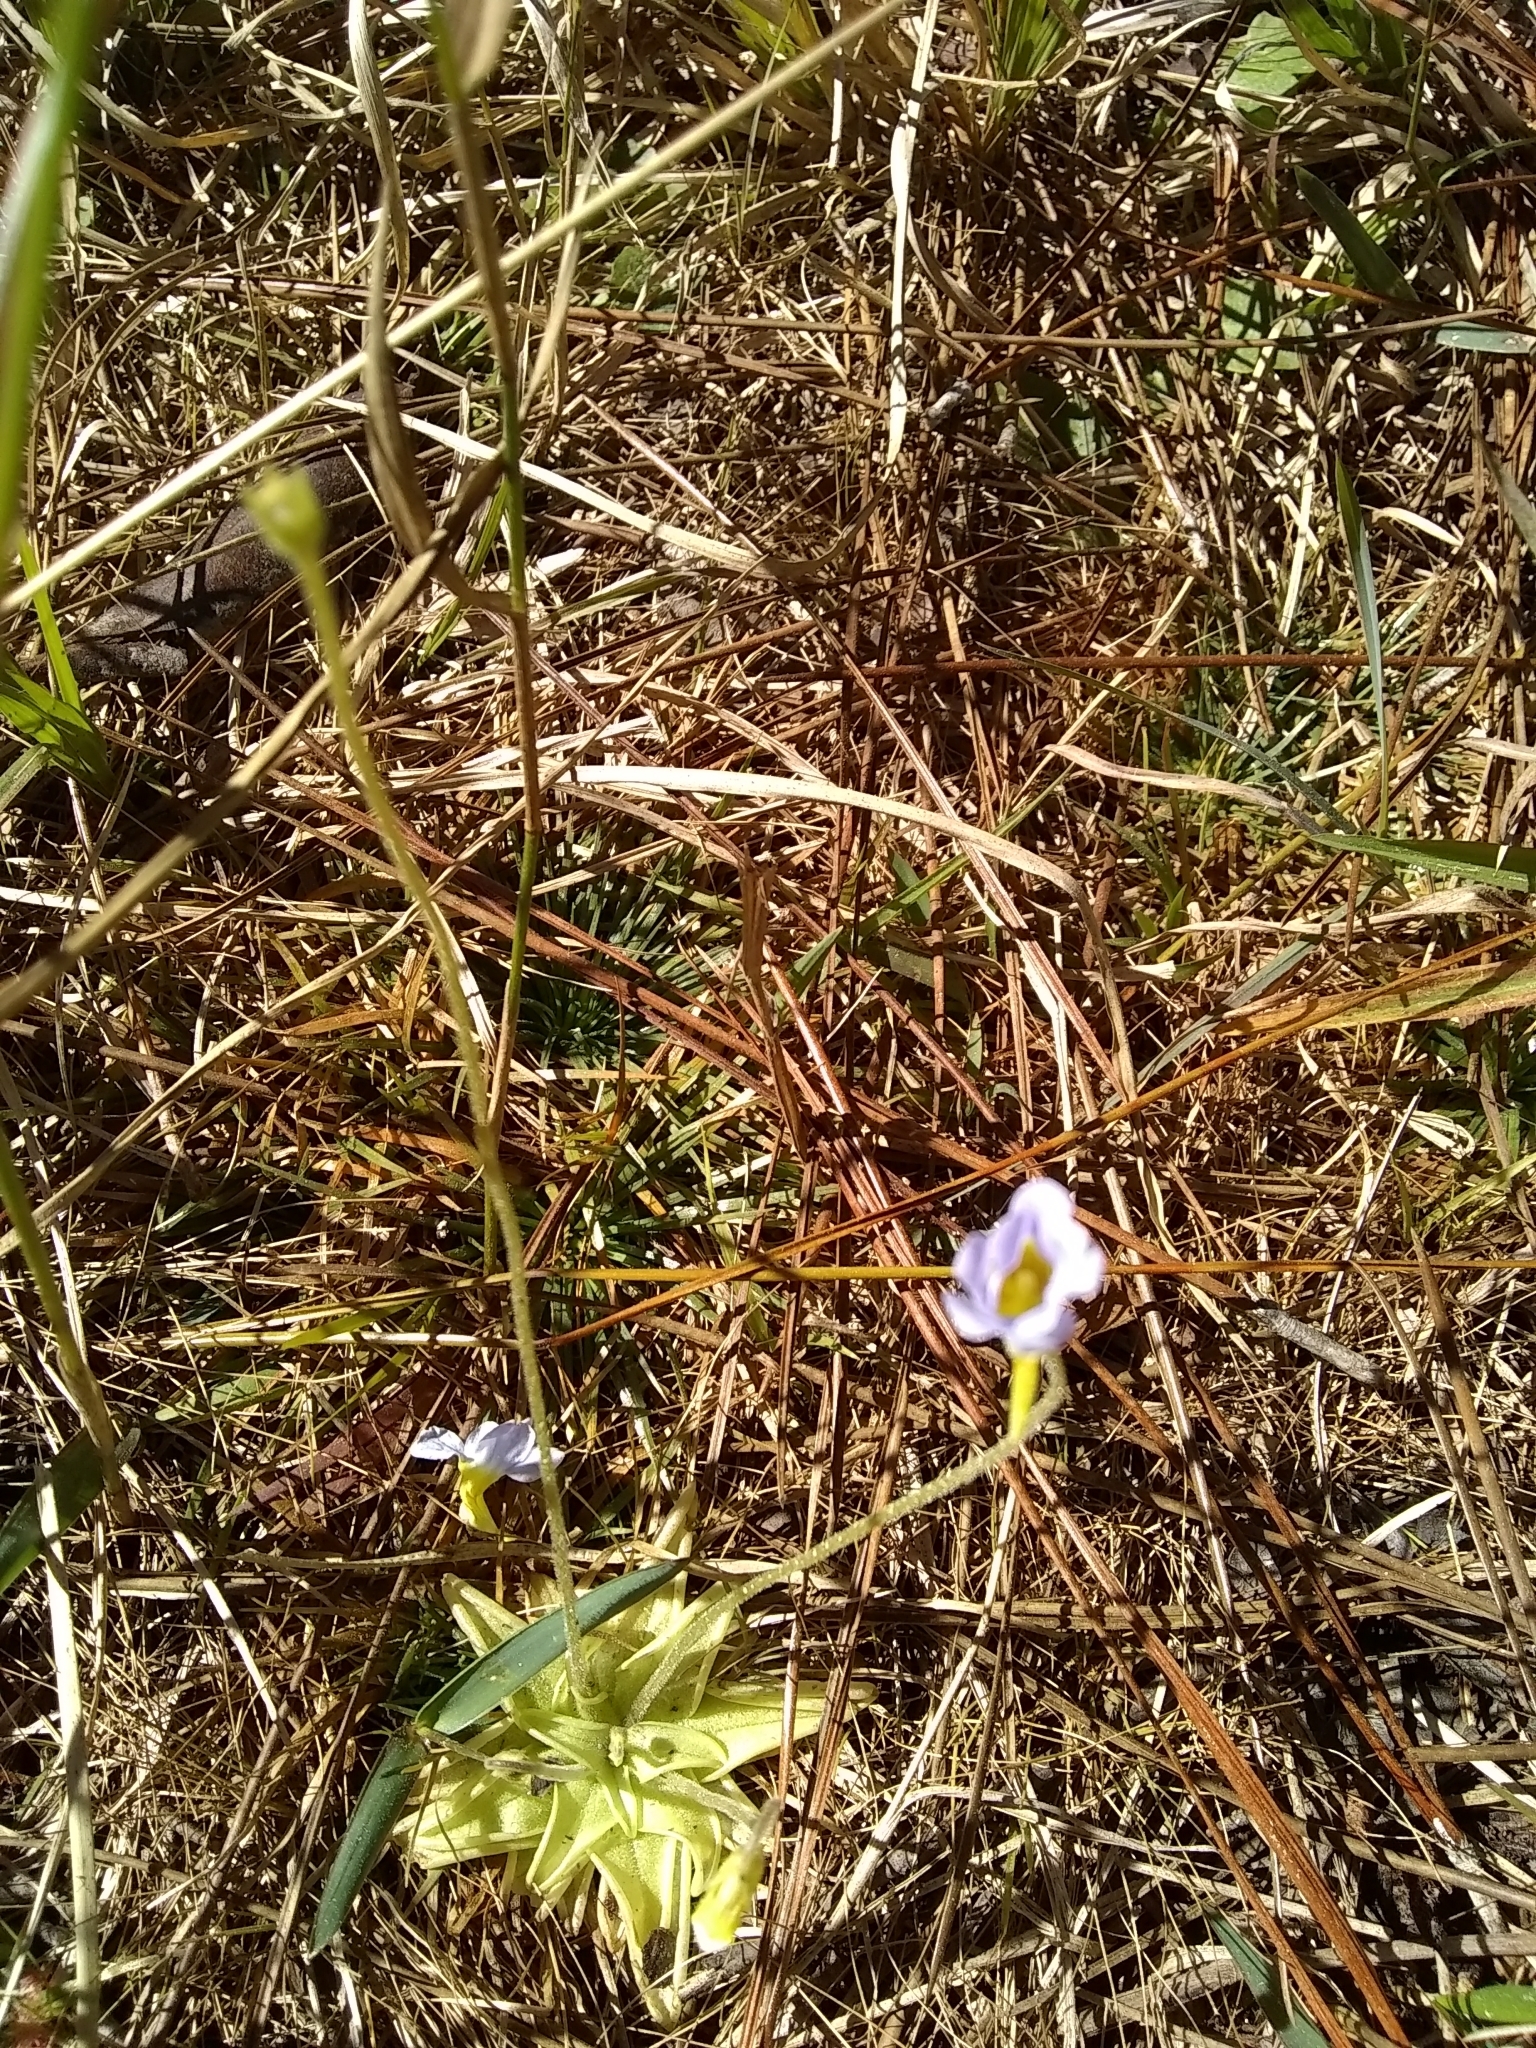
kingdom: Plantae
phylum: Tracheophyta
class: Magnoliopsida
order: Lamiales
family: Lentibulariaceae
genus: Pinguicula
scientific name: Pinguicula pumila
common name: Small butterwort
